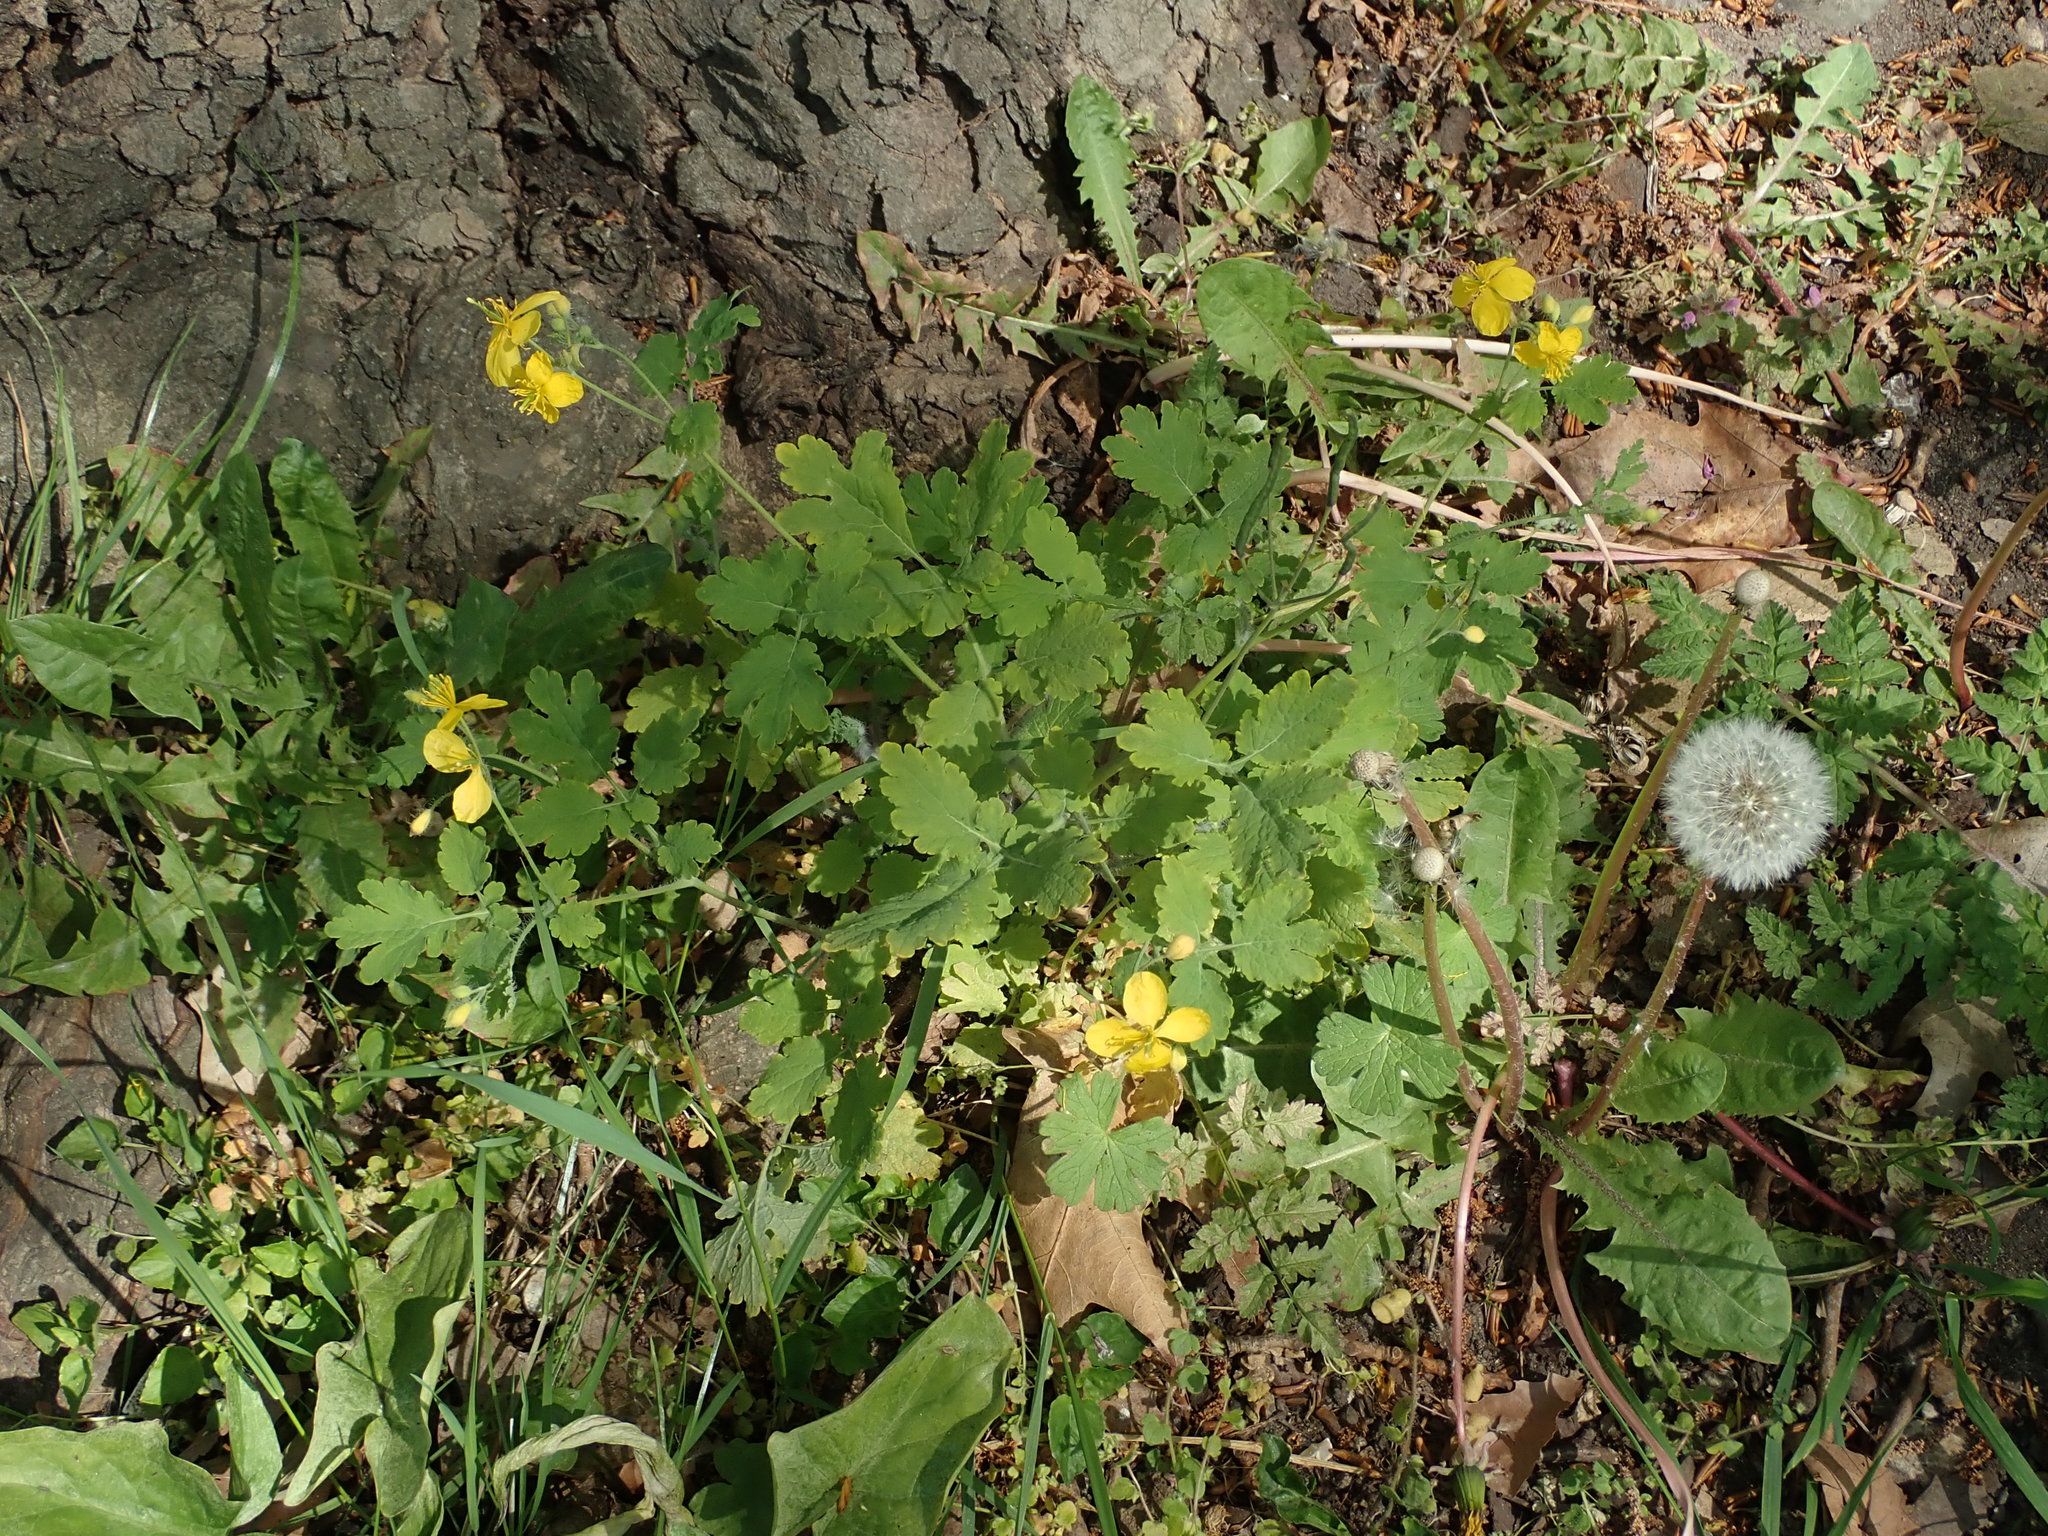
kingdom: Plantae
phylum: Tracheophyta
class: Magnoliopsida
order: Ranunculales
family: Papaveraceae
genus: Chelidonium
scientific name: Chelidonium majus
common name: Greater celandine
